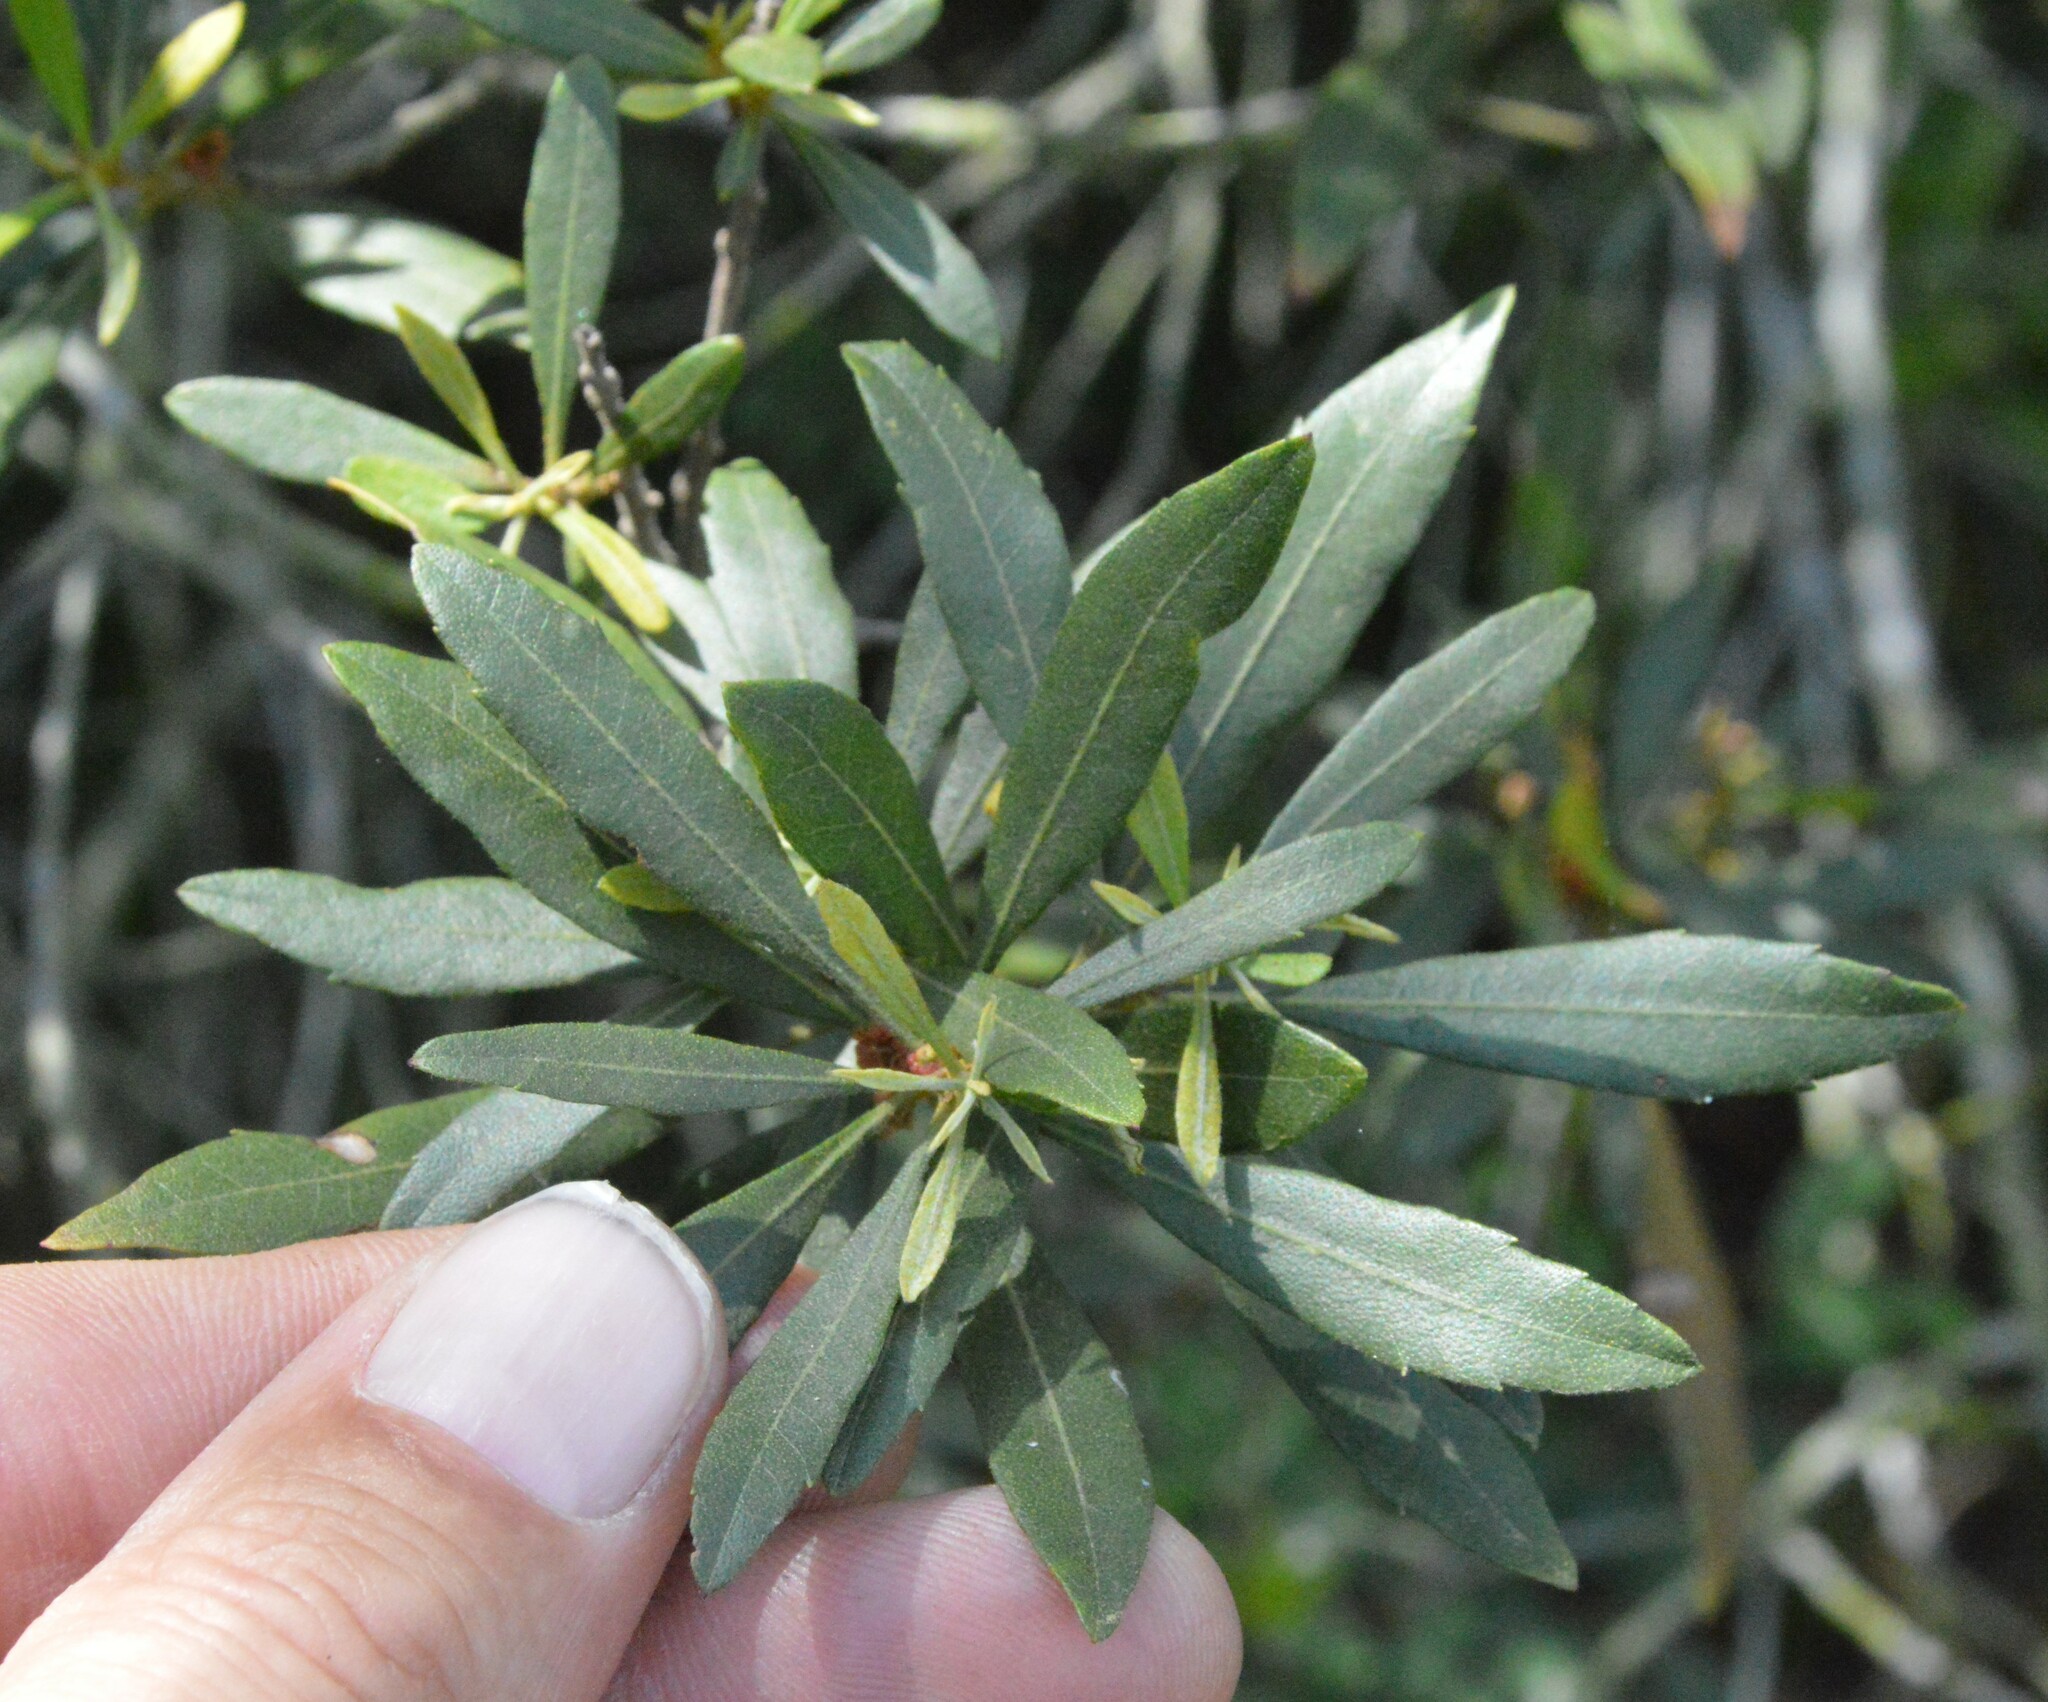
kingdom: Plantae
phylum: Tracheophyta
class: Magnoliopsida
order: Fagales
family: Myricaceae
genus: Morella
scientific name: Morella cerifera
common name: Wax myrtle
